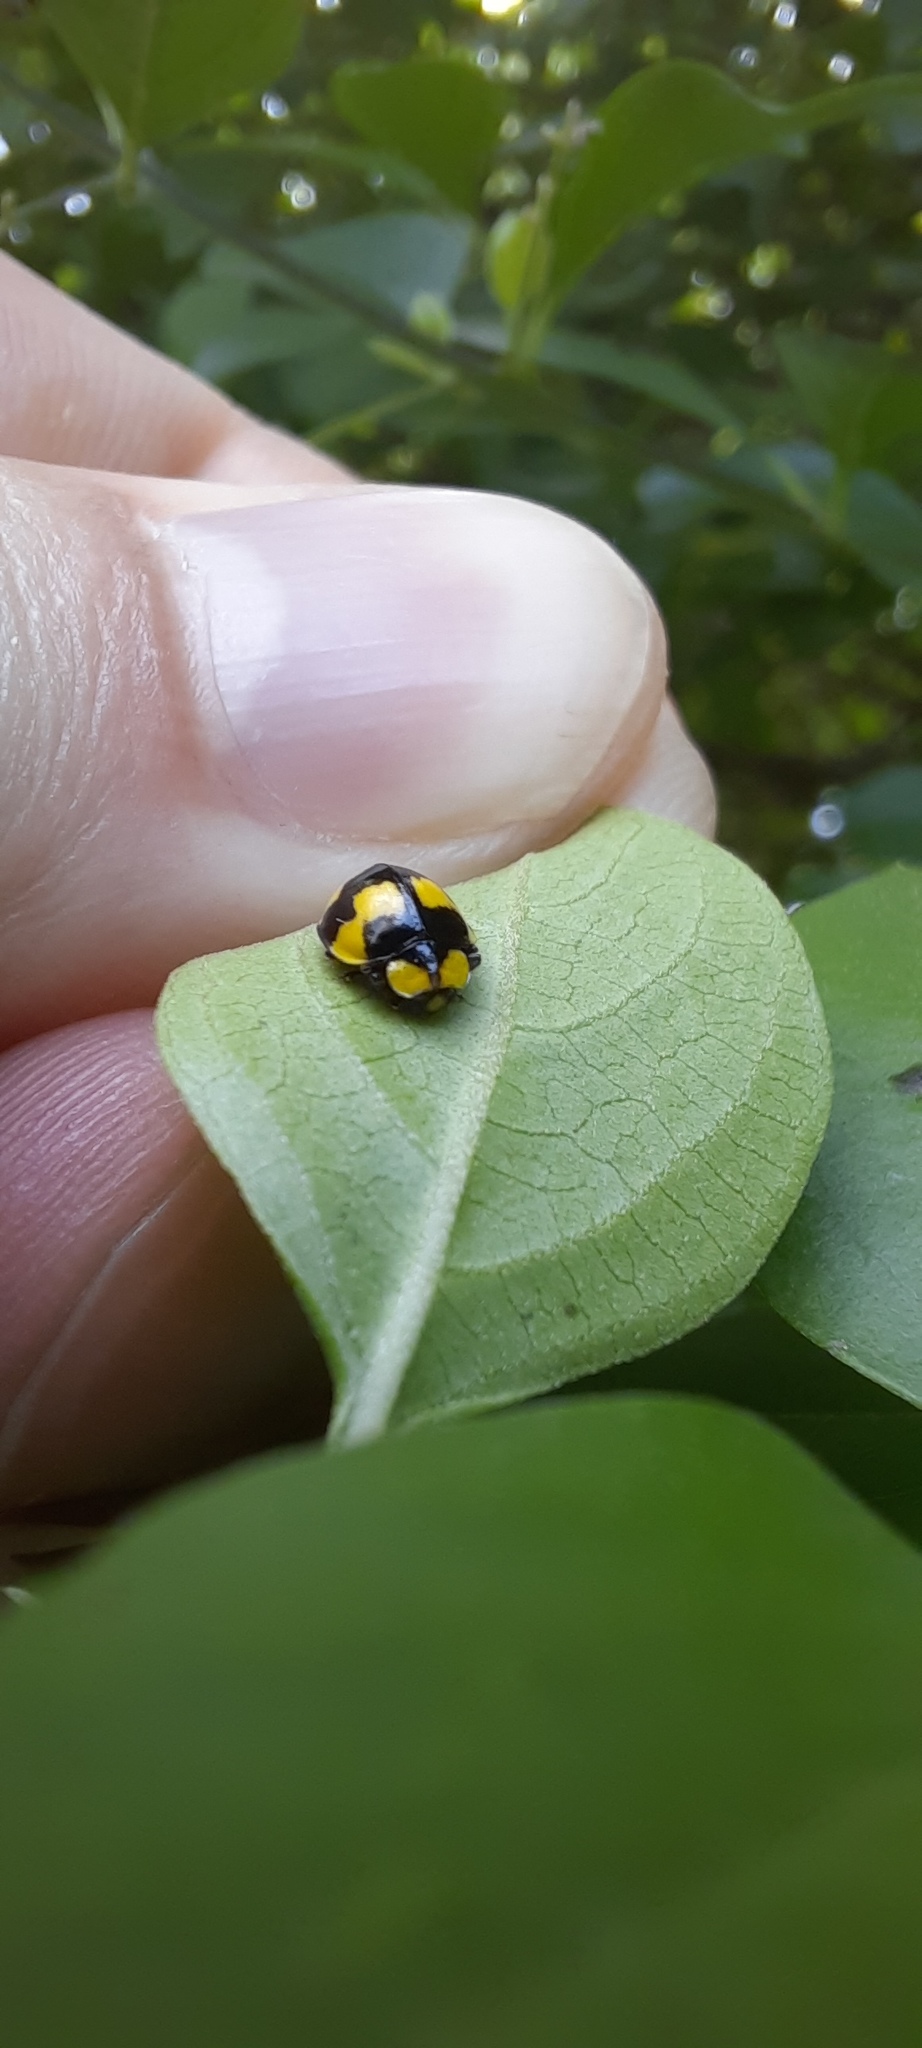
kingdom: Animalia
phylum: Arthropoda
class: Insecta
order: Coleoptera
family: Coccinellidae
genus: Illeis
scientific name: Illeis galbula
